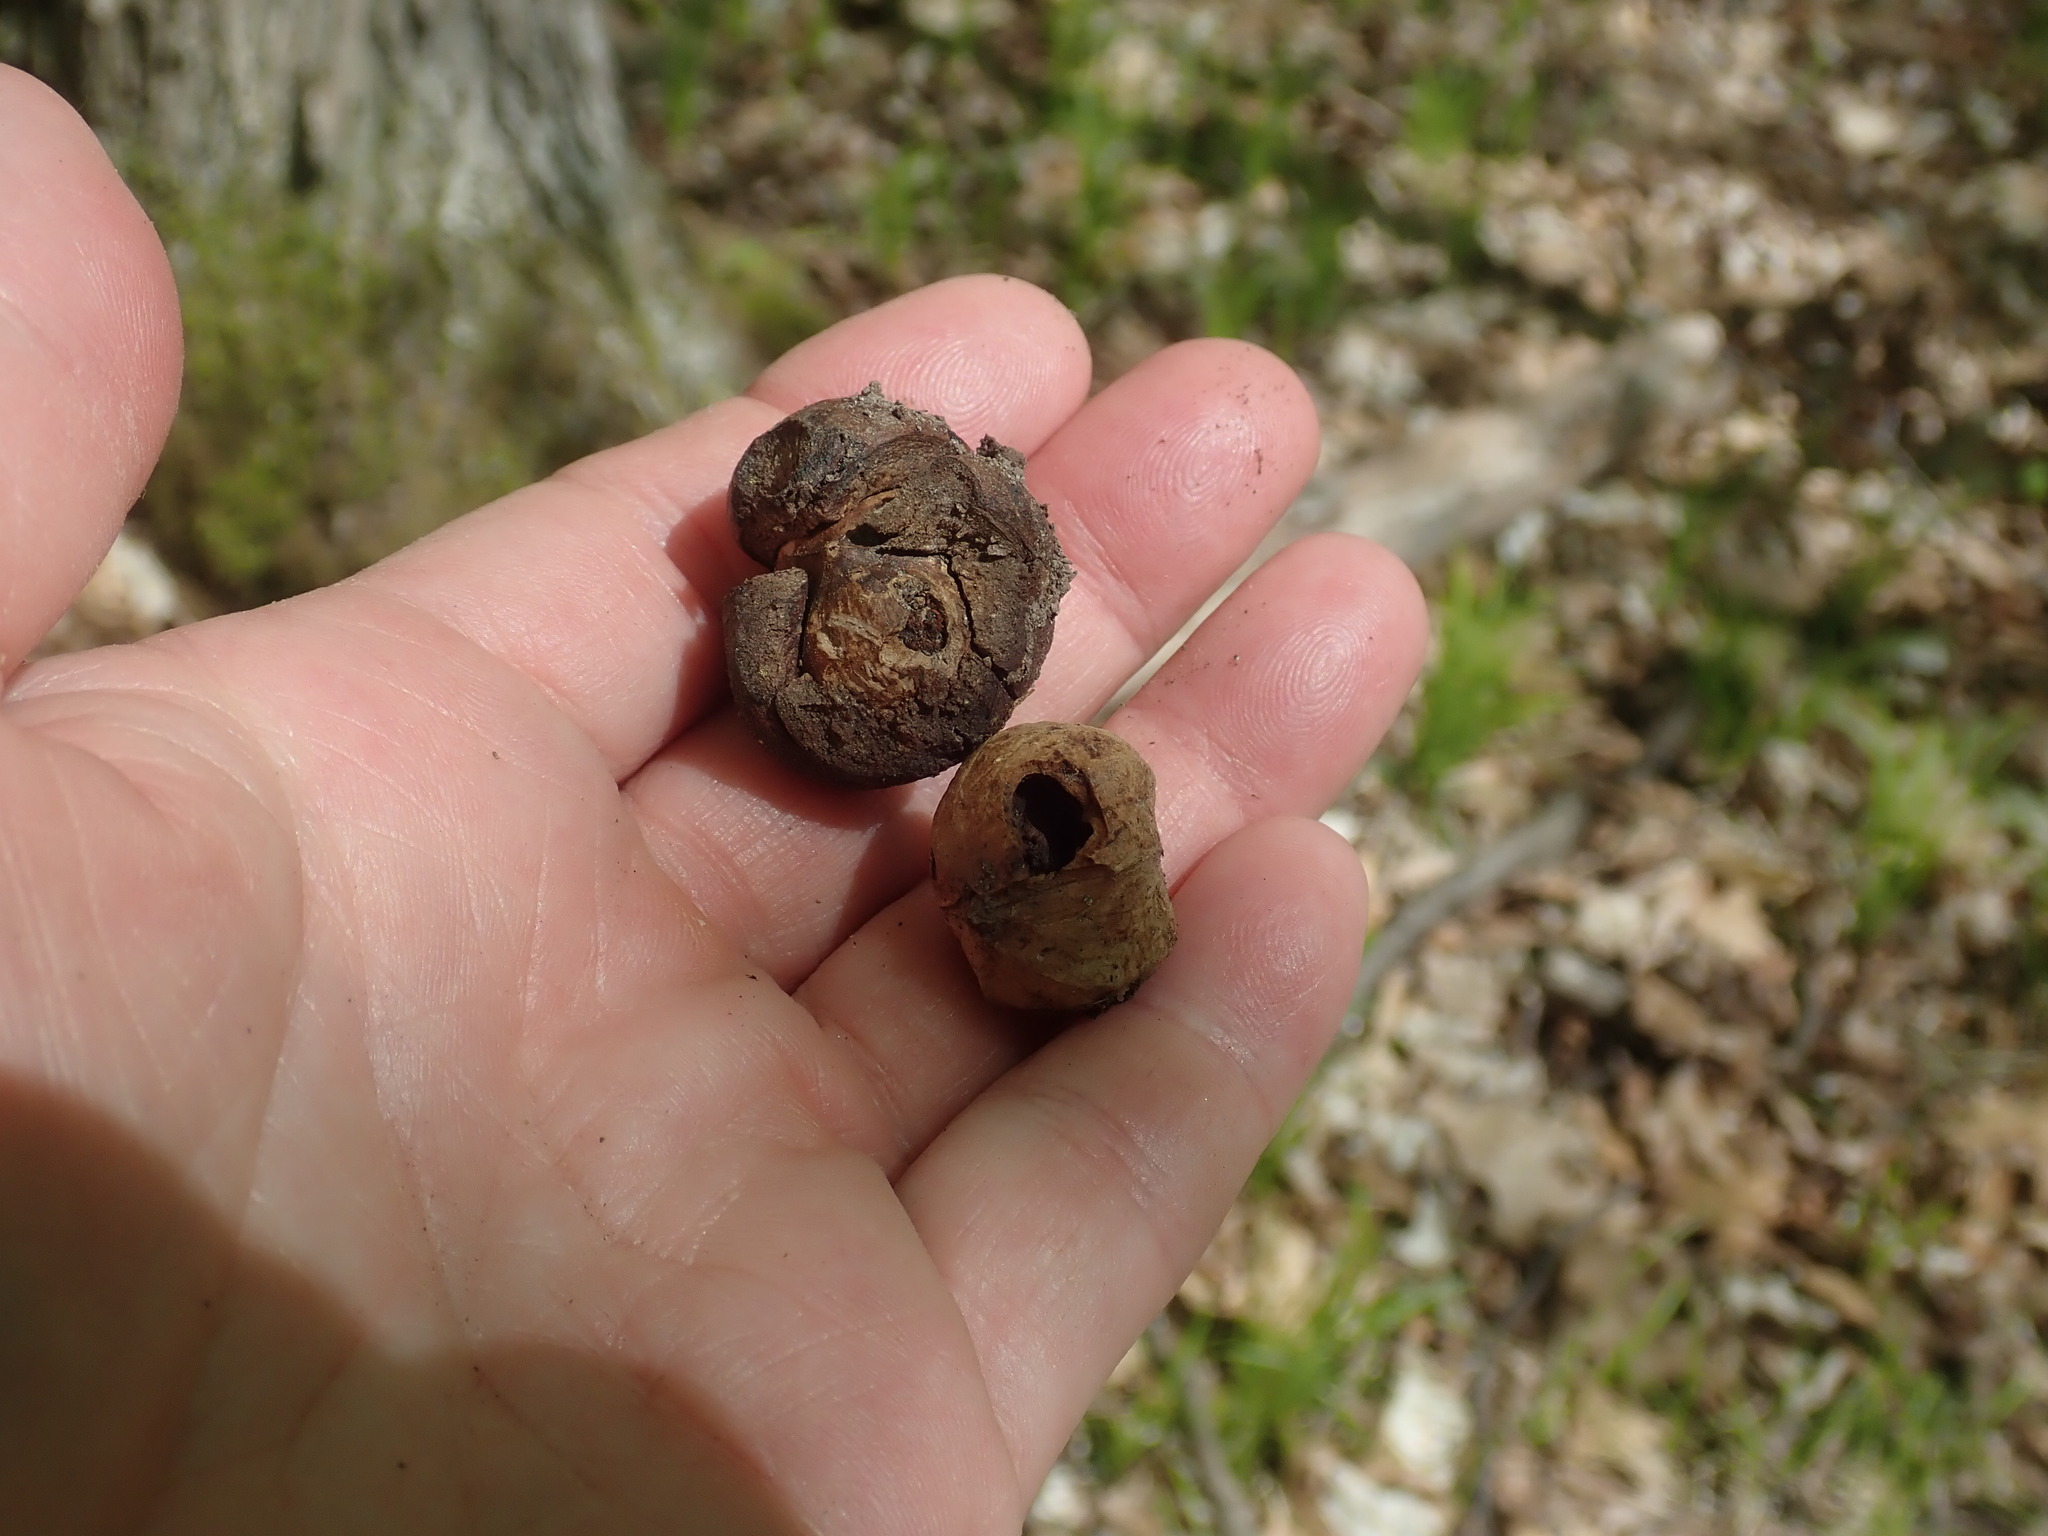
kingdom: Plantae
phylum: Tracheophyta
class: Magnoliopsida
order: Fagales
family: Juglandaceae
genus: Carya
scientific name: Carya ovata
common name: Shagbark hickory
